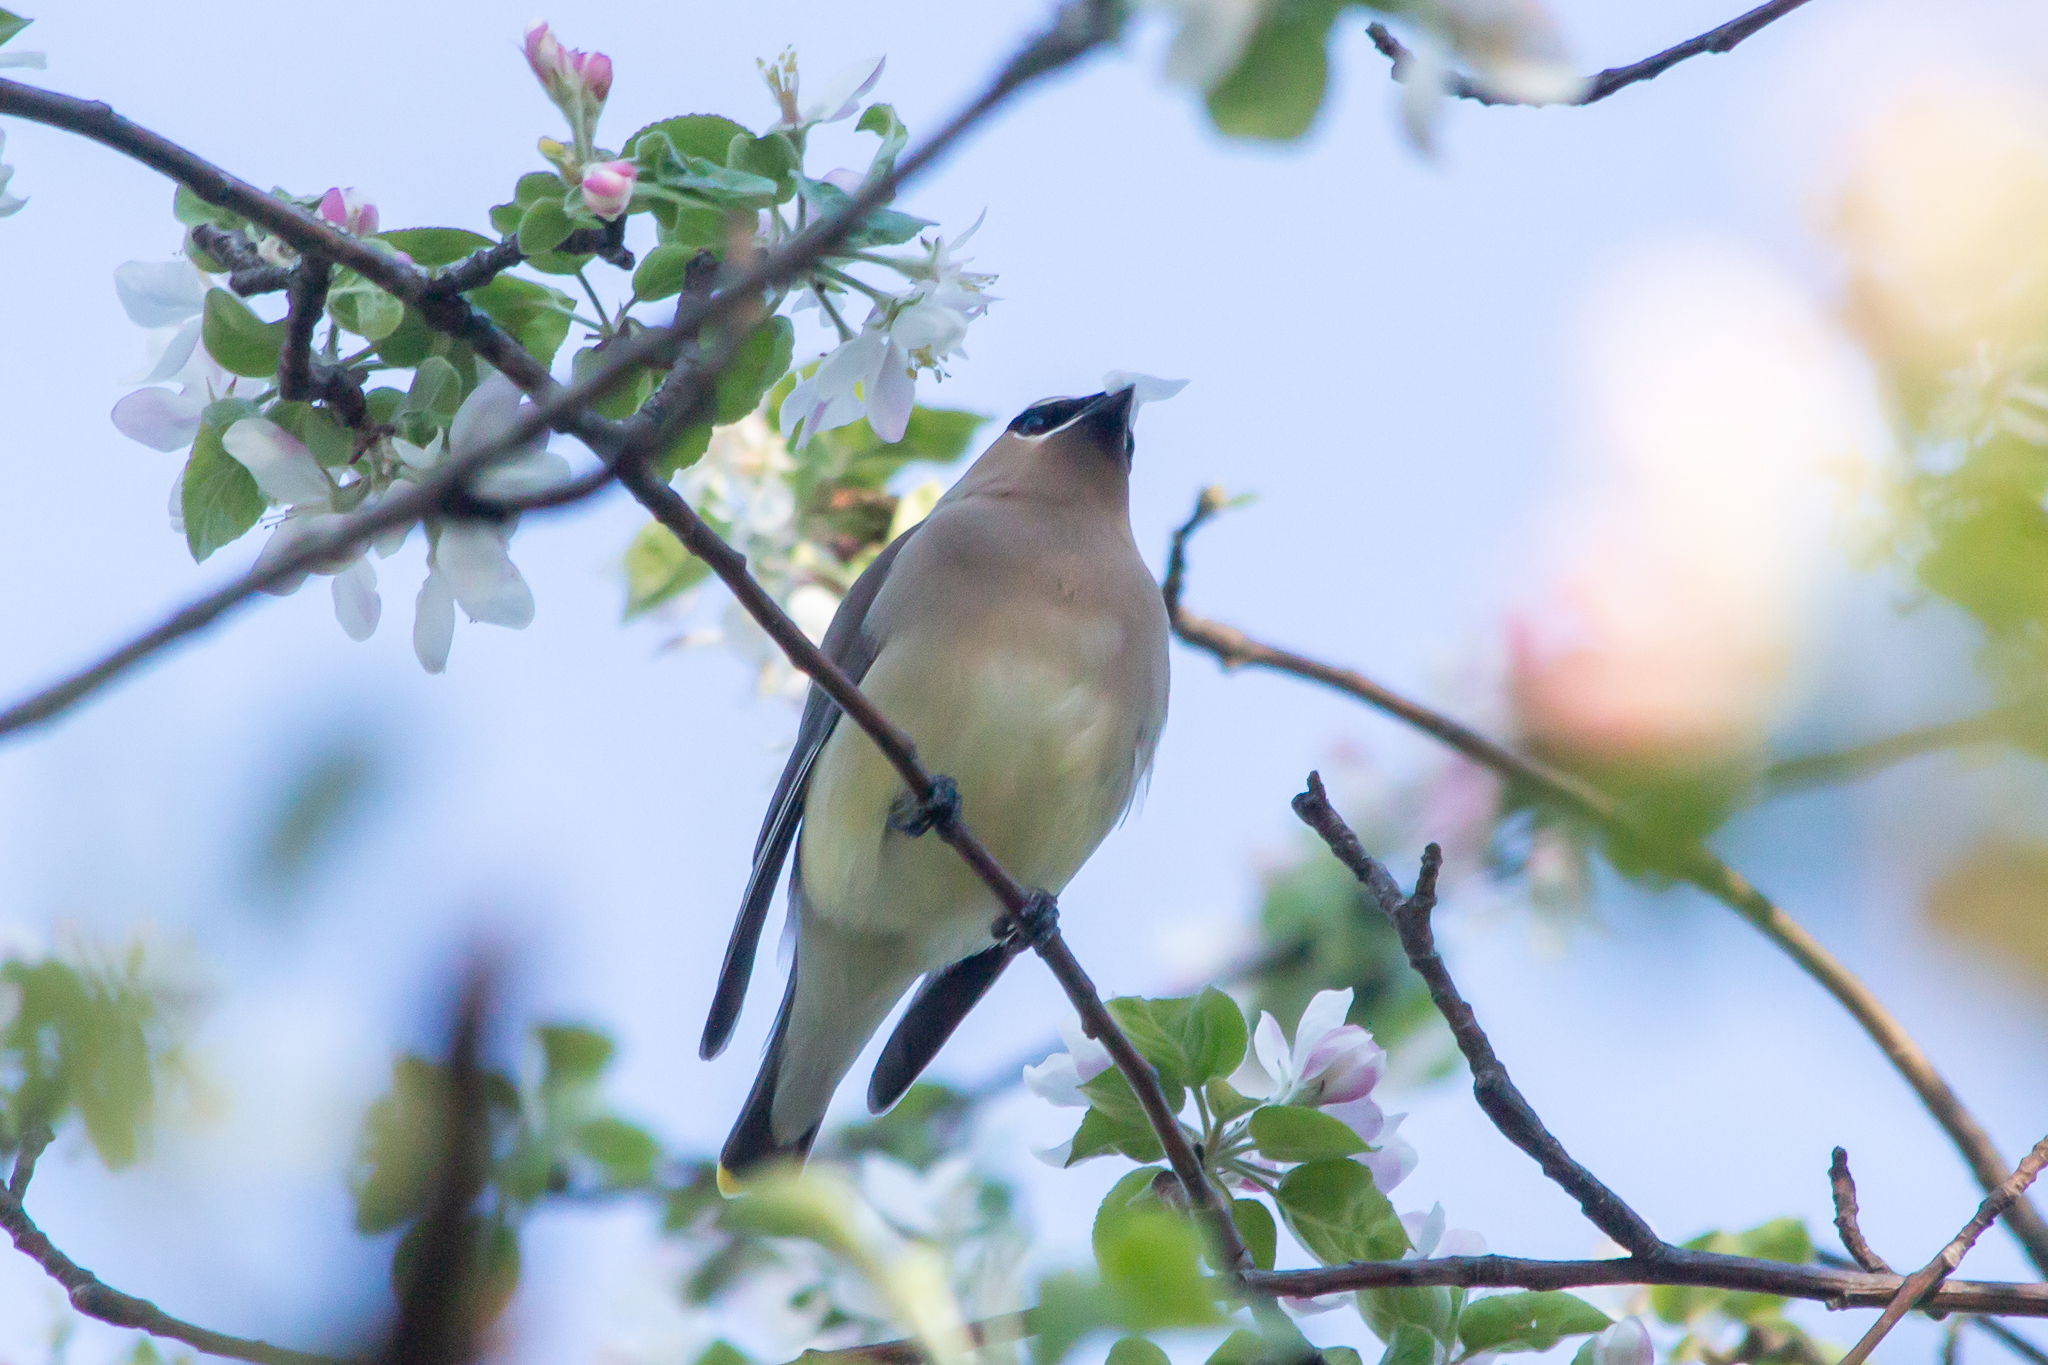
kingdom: Animalia
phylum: Chordata
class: Aves
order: Passeriformes
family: Bombycillidae
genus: Bombycilla
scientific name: Bombycilla cedrorum
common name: Cedar waxwing
